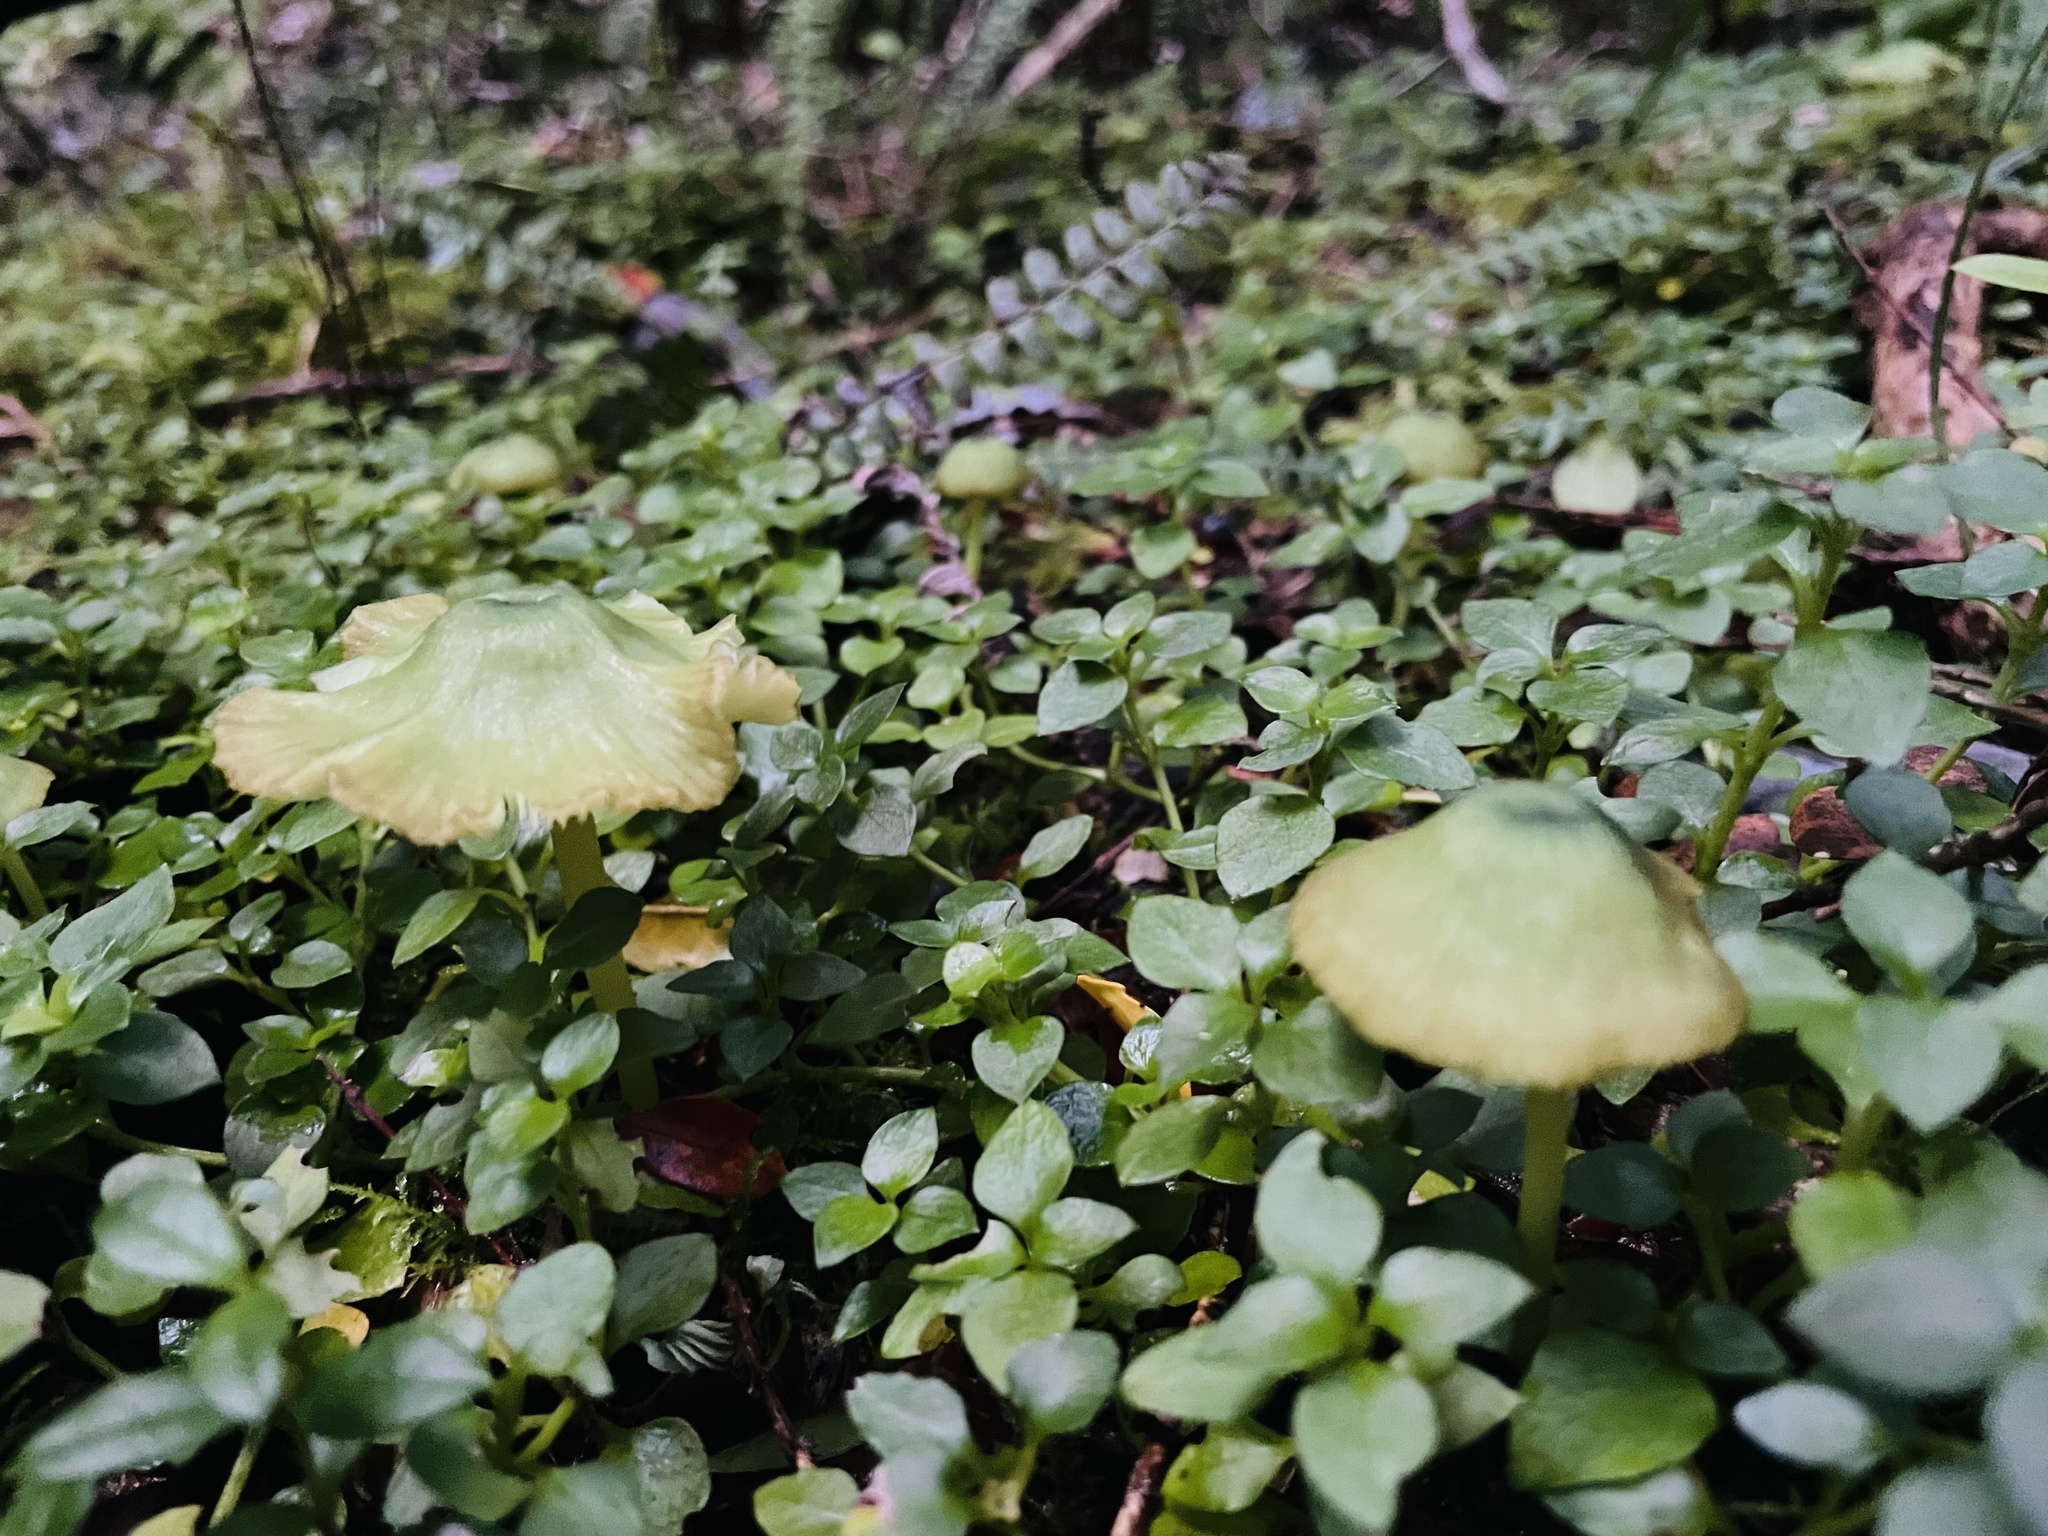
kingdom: Fungi
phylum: Basidiomycota
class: Agaricomycetes
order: Agaricales
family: Entolomataceae
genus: Entoloma
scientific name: Entoloma necopinatum
